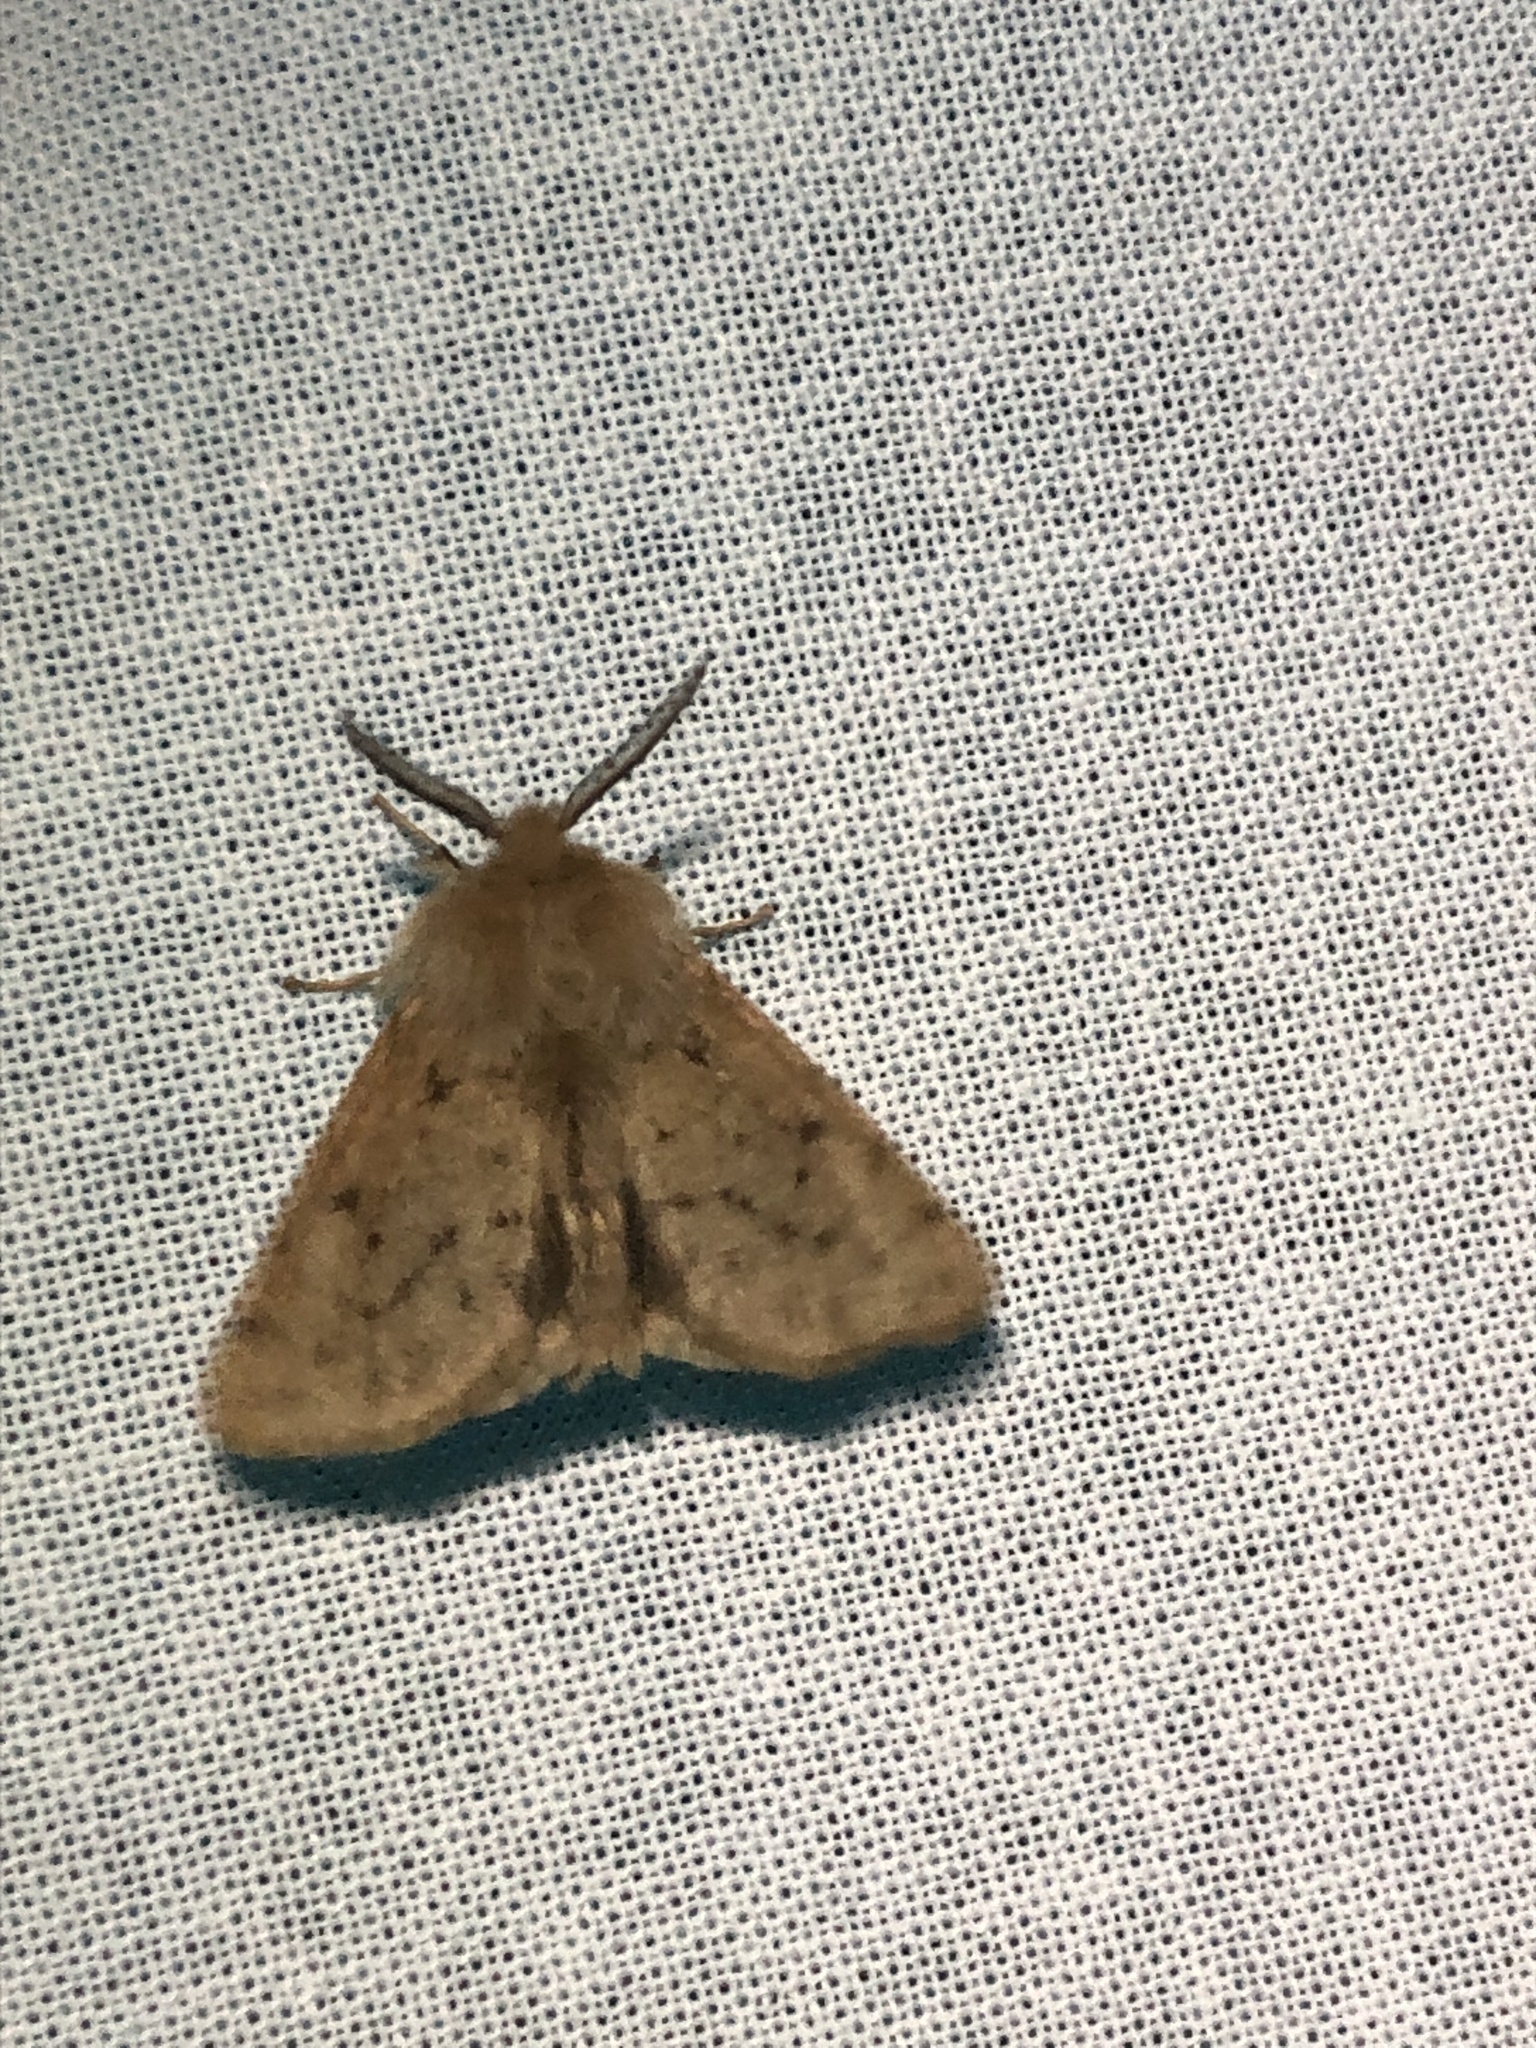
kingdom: Animalia
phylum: Arthropoda
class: Insecta
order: Lepidoptera
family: Erebidae
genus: Spilosoma
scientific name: Spilosoma vagans
